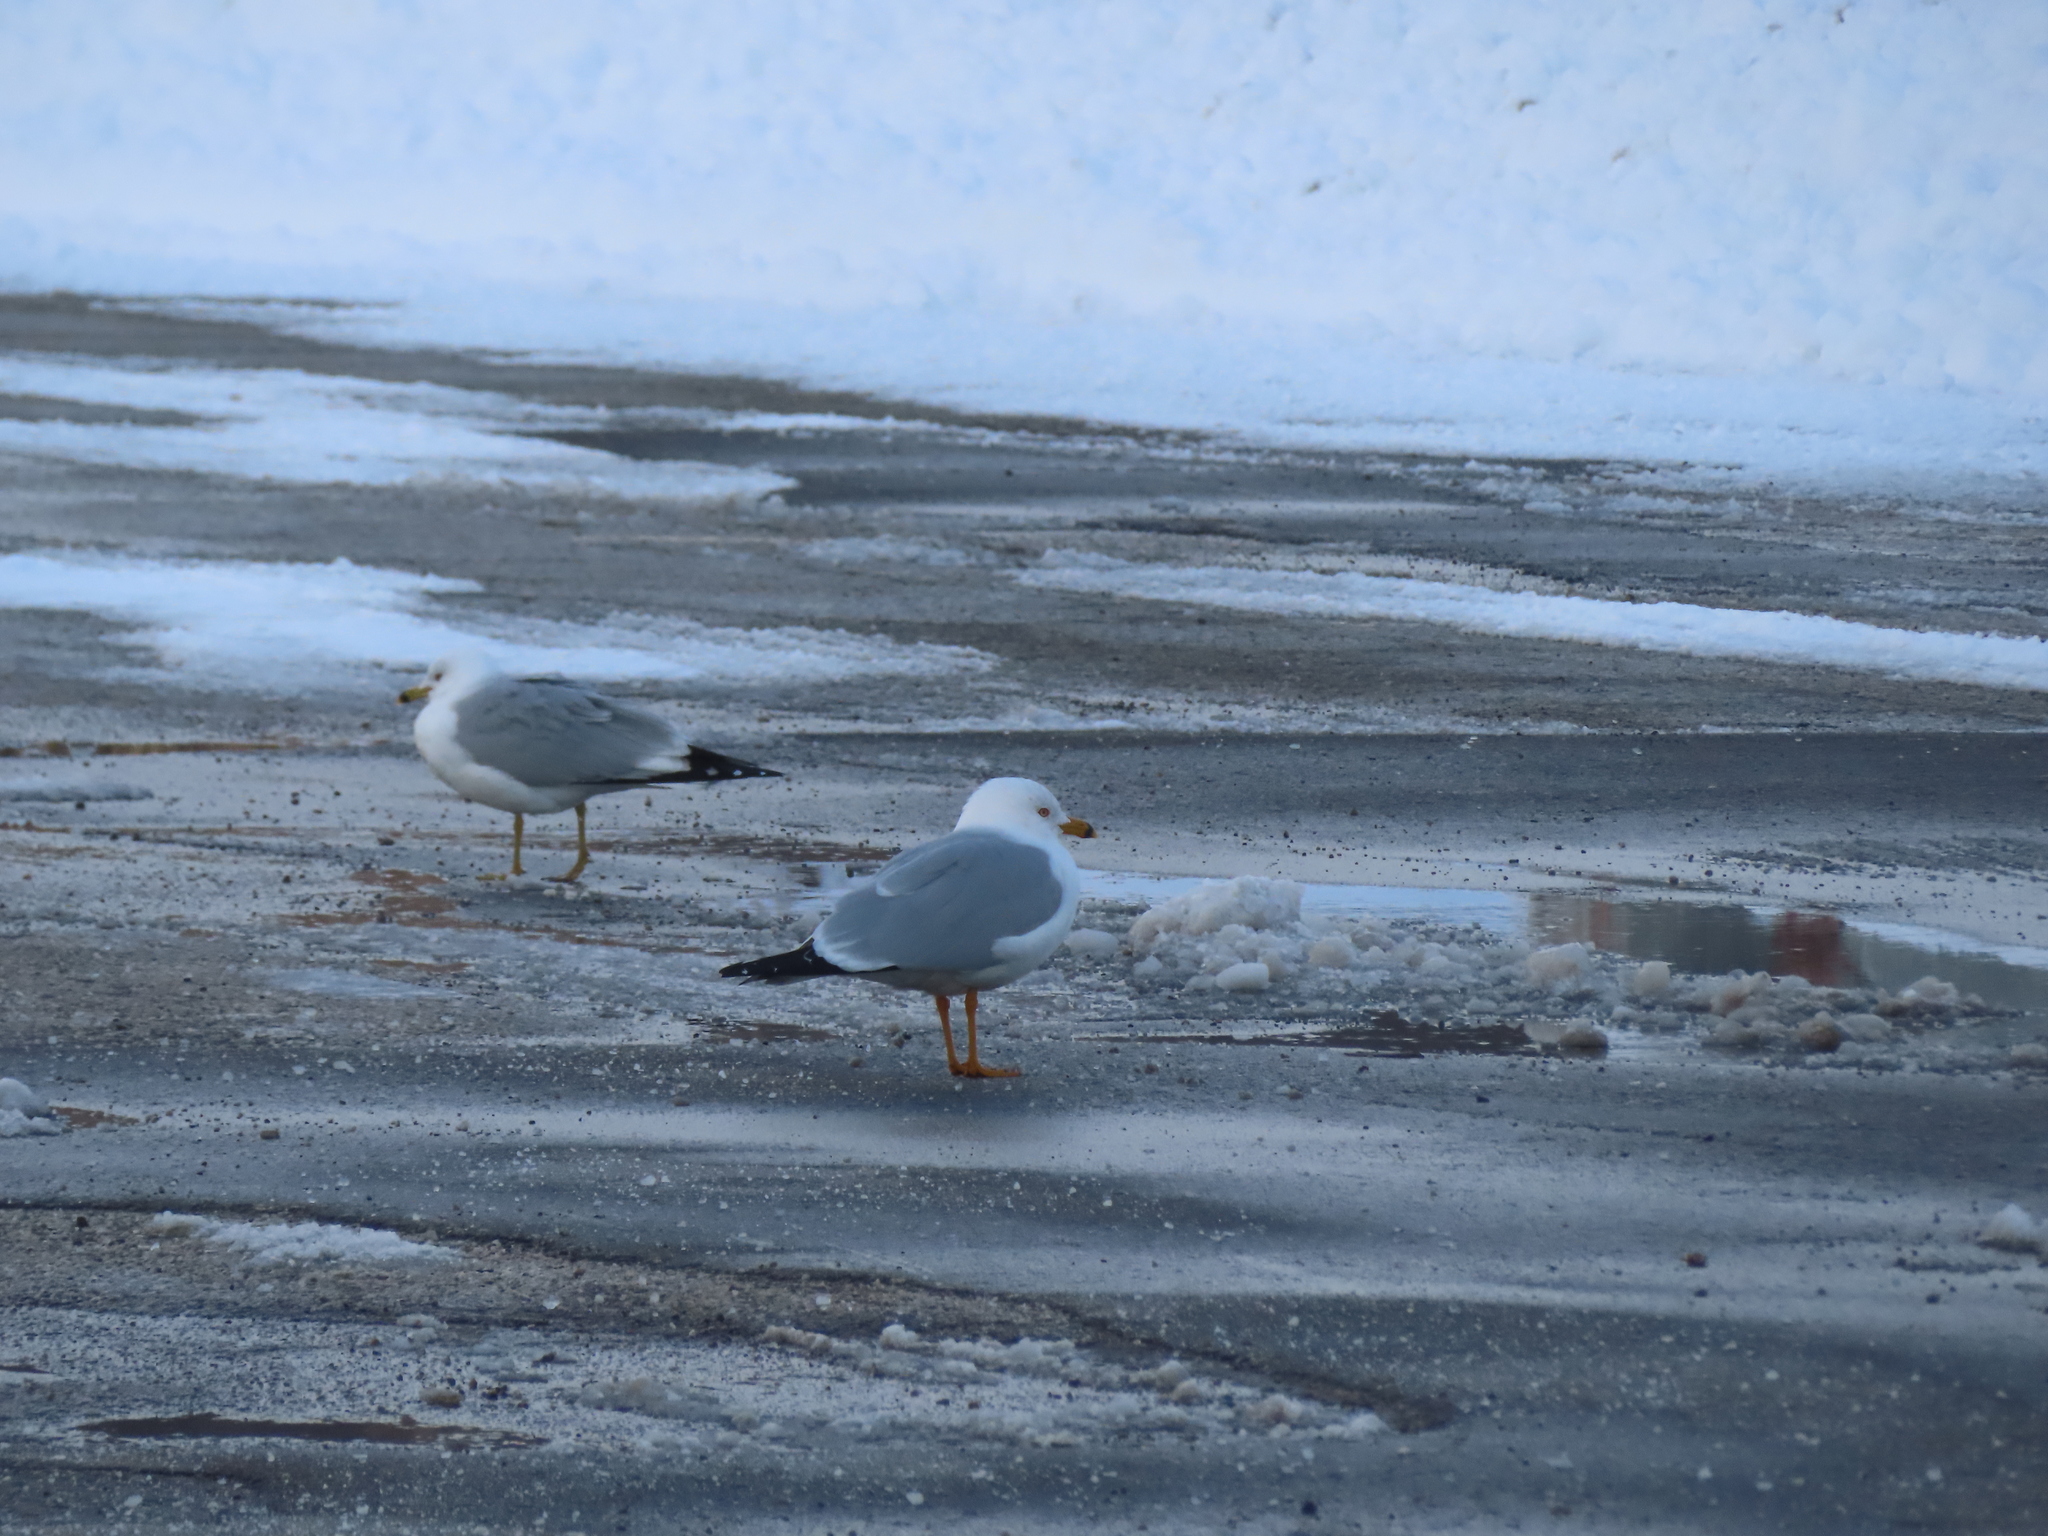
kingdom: Animalia
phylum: Chordata
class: Aves
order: Charadriiformes
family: Laridae
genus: Larus
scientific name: Larus delawarensis
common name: Ring-billed gull
